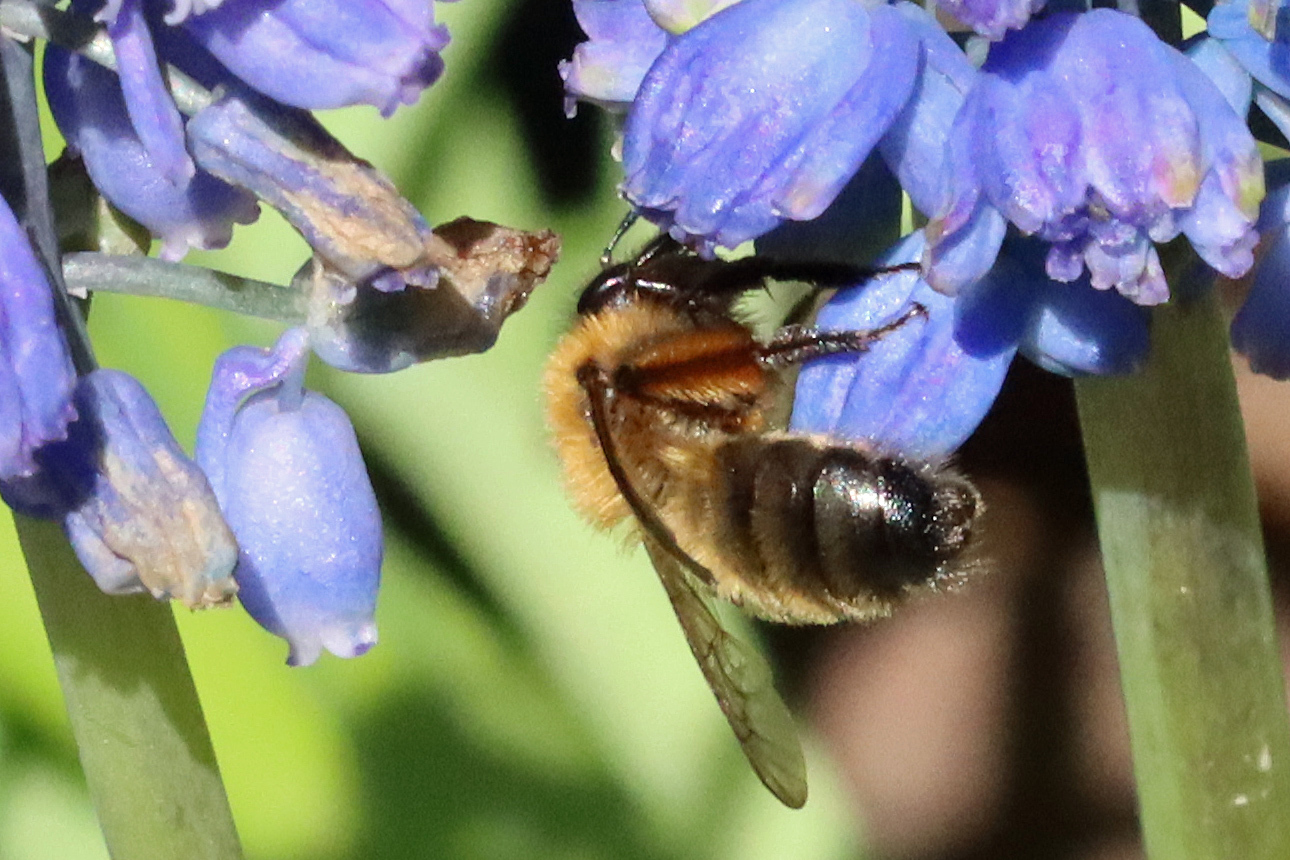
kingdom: Animalia
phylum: Arthropoda
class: Insecta
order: Hymenoptera
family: Andrenidae
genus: Andrena
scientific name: Andrena nigroaenea
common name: Buffish mining bee
